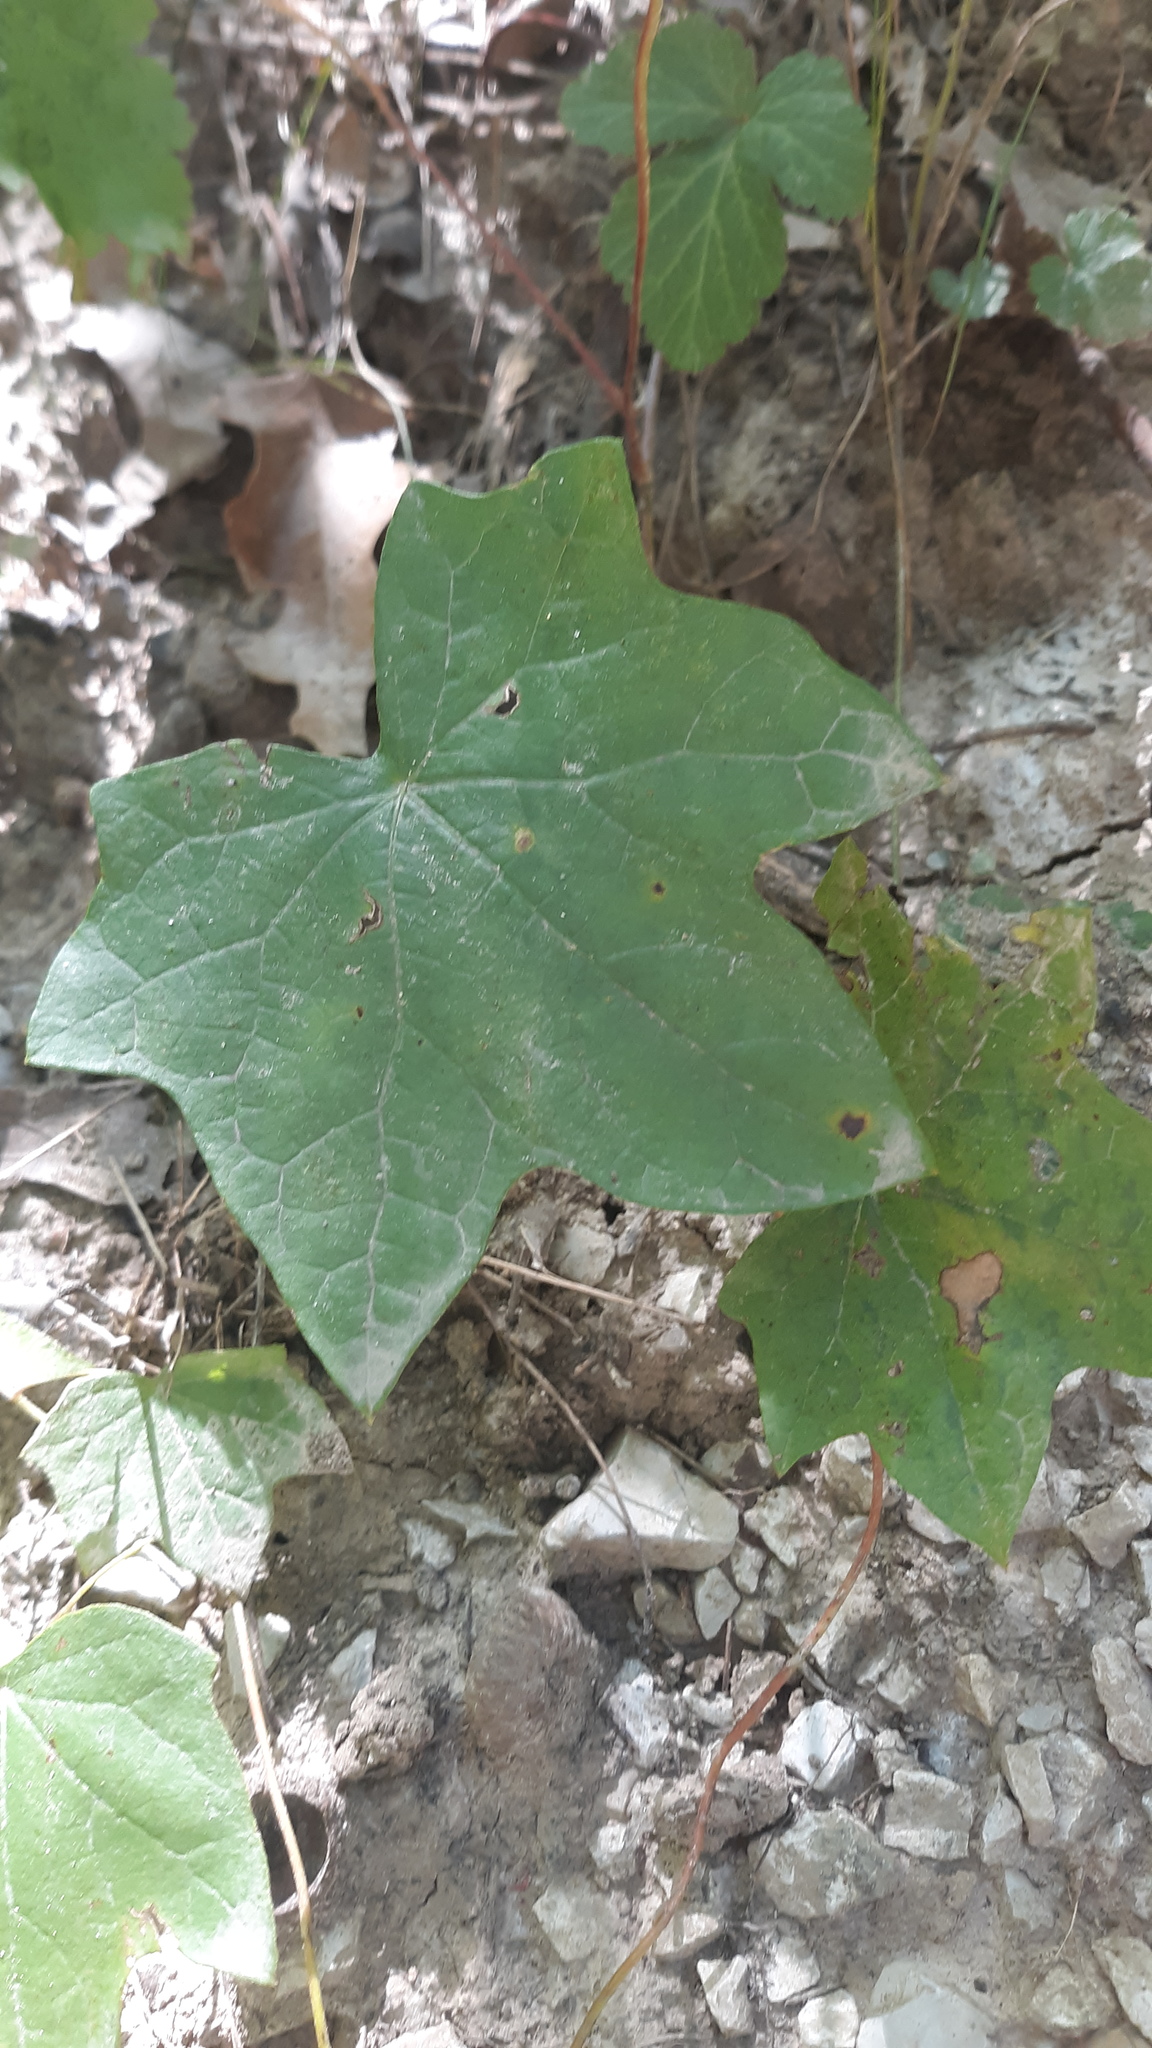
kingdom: Plantae
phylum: Tracheophyta
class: Magnoliopsida
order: Ranunculales
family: Menispermaceae
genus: Menispermum
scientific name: Menispermum canadense
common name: Moonseed
